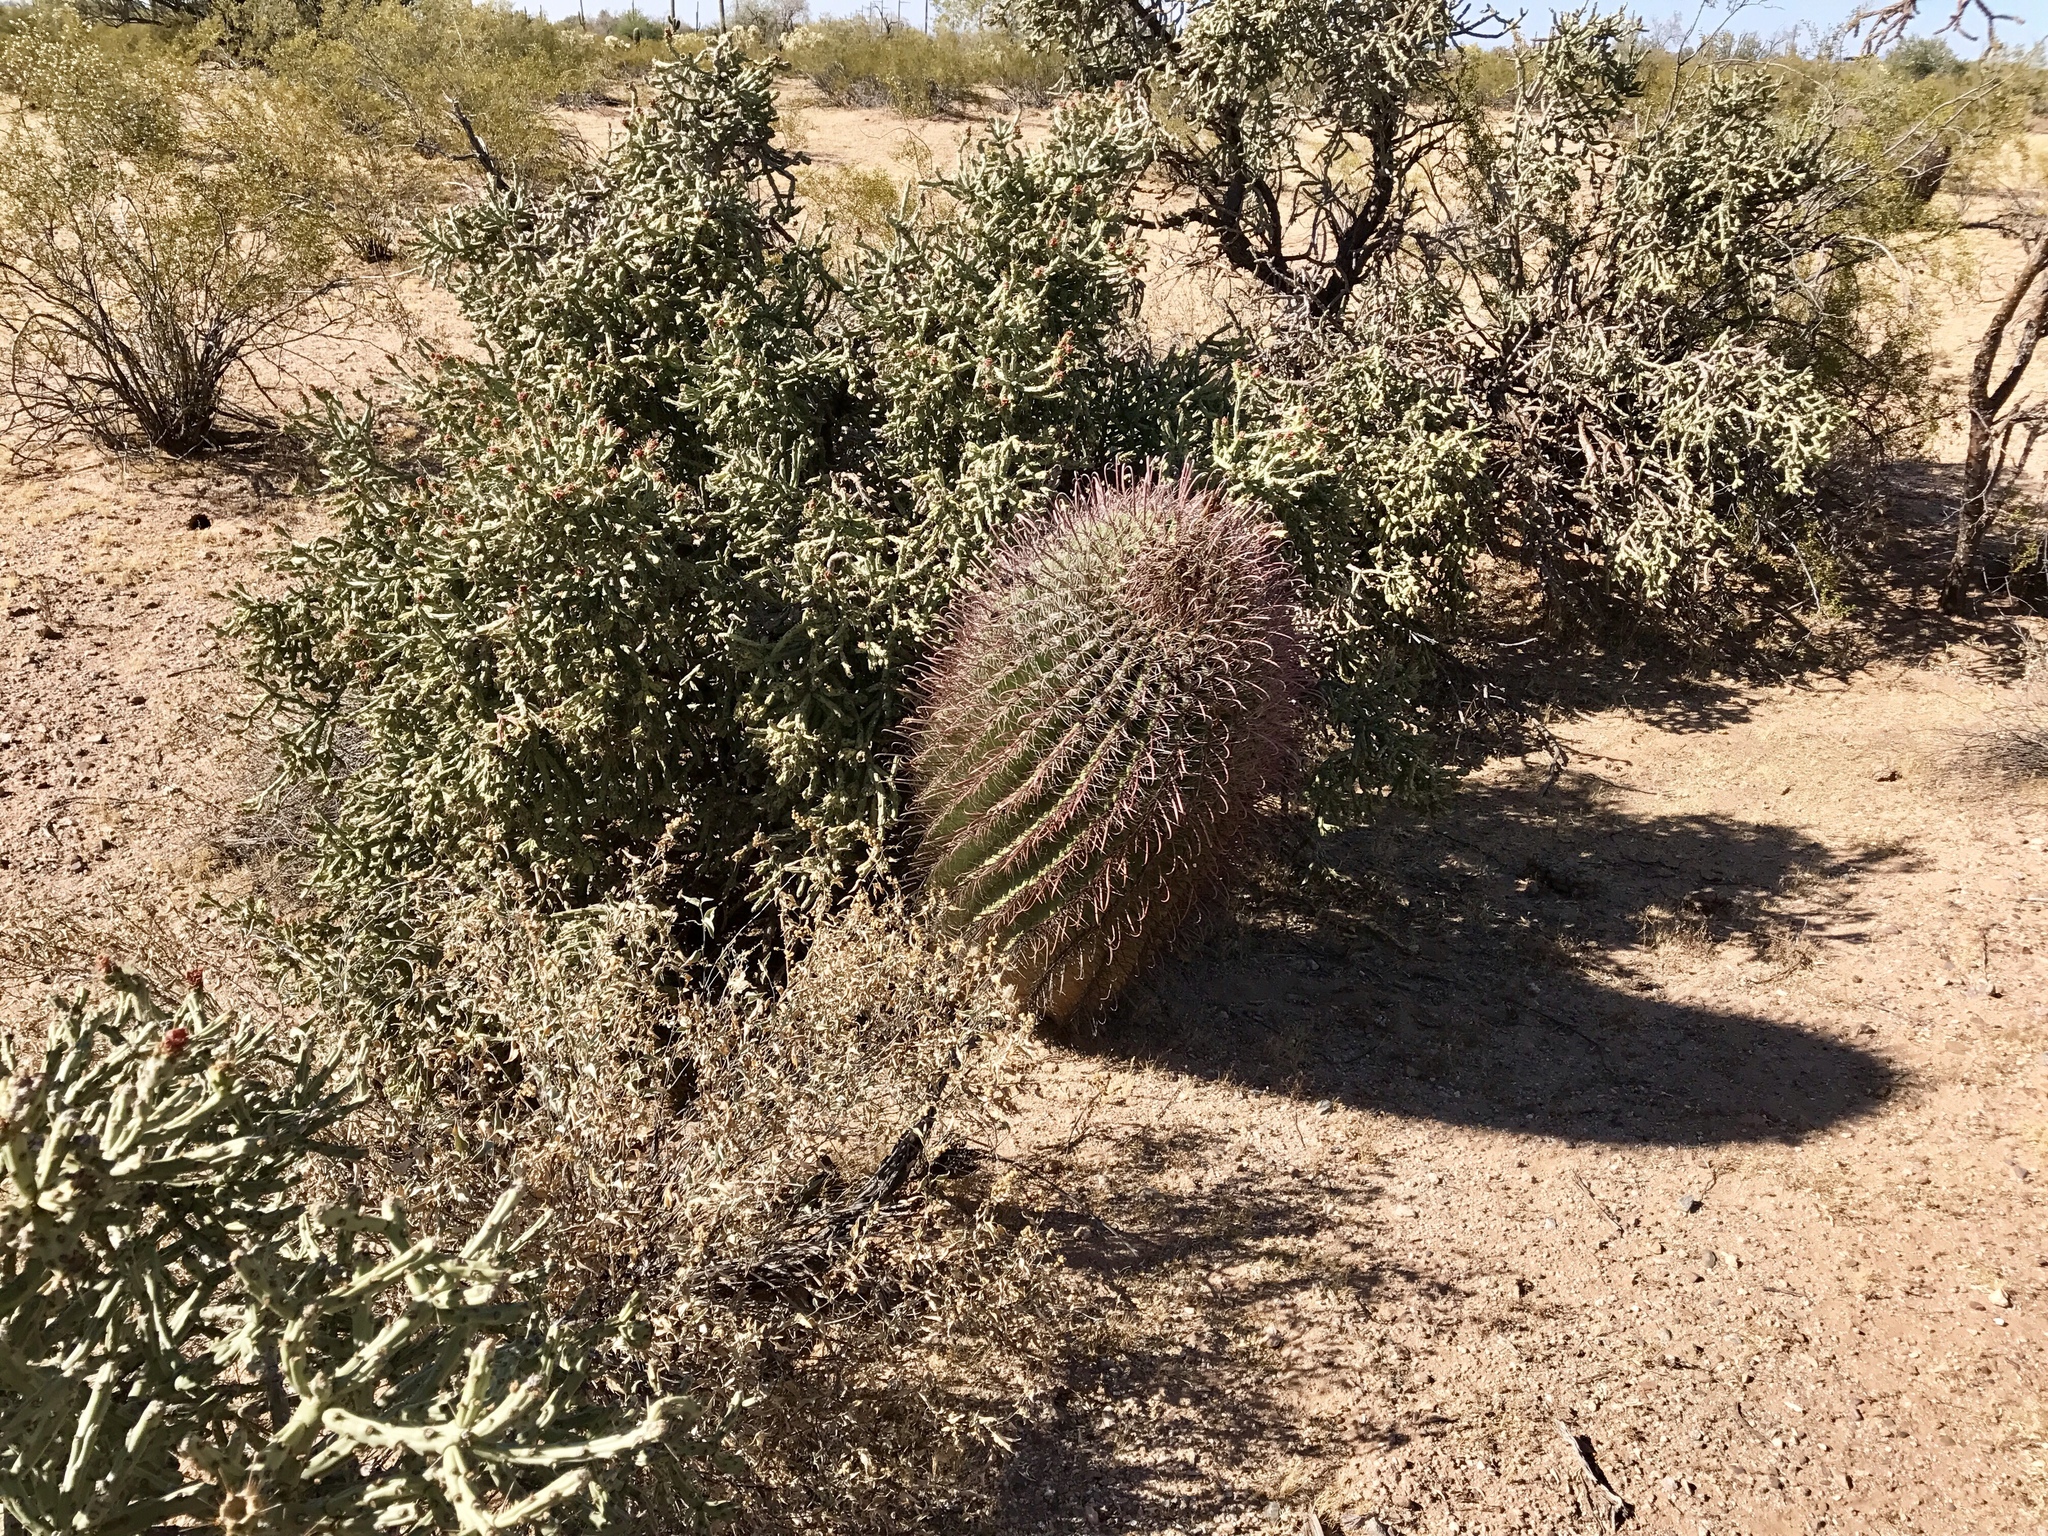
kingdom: Plantae
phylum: Tracheophyta
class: Magnoliopsida
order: Caryophyllales
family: Cactaceae
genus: Ferocactus
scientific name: Ferocactus wislizeni
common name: Candy barrel cactus
